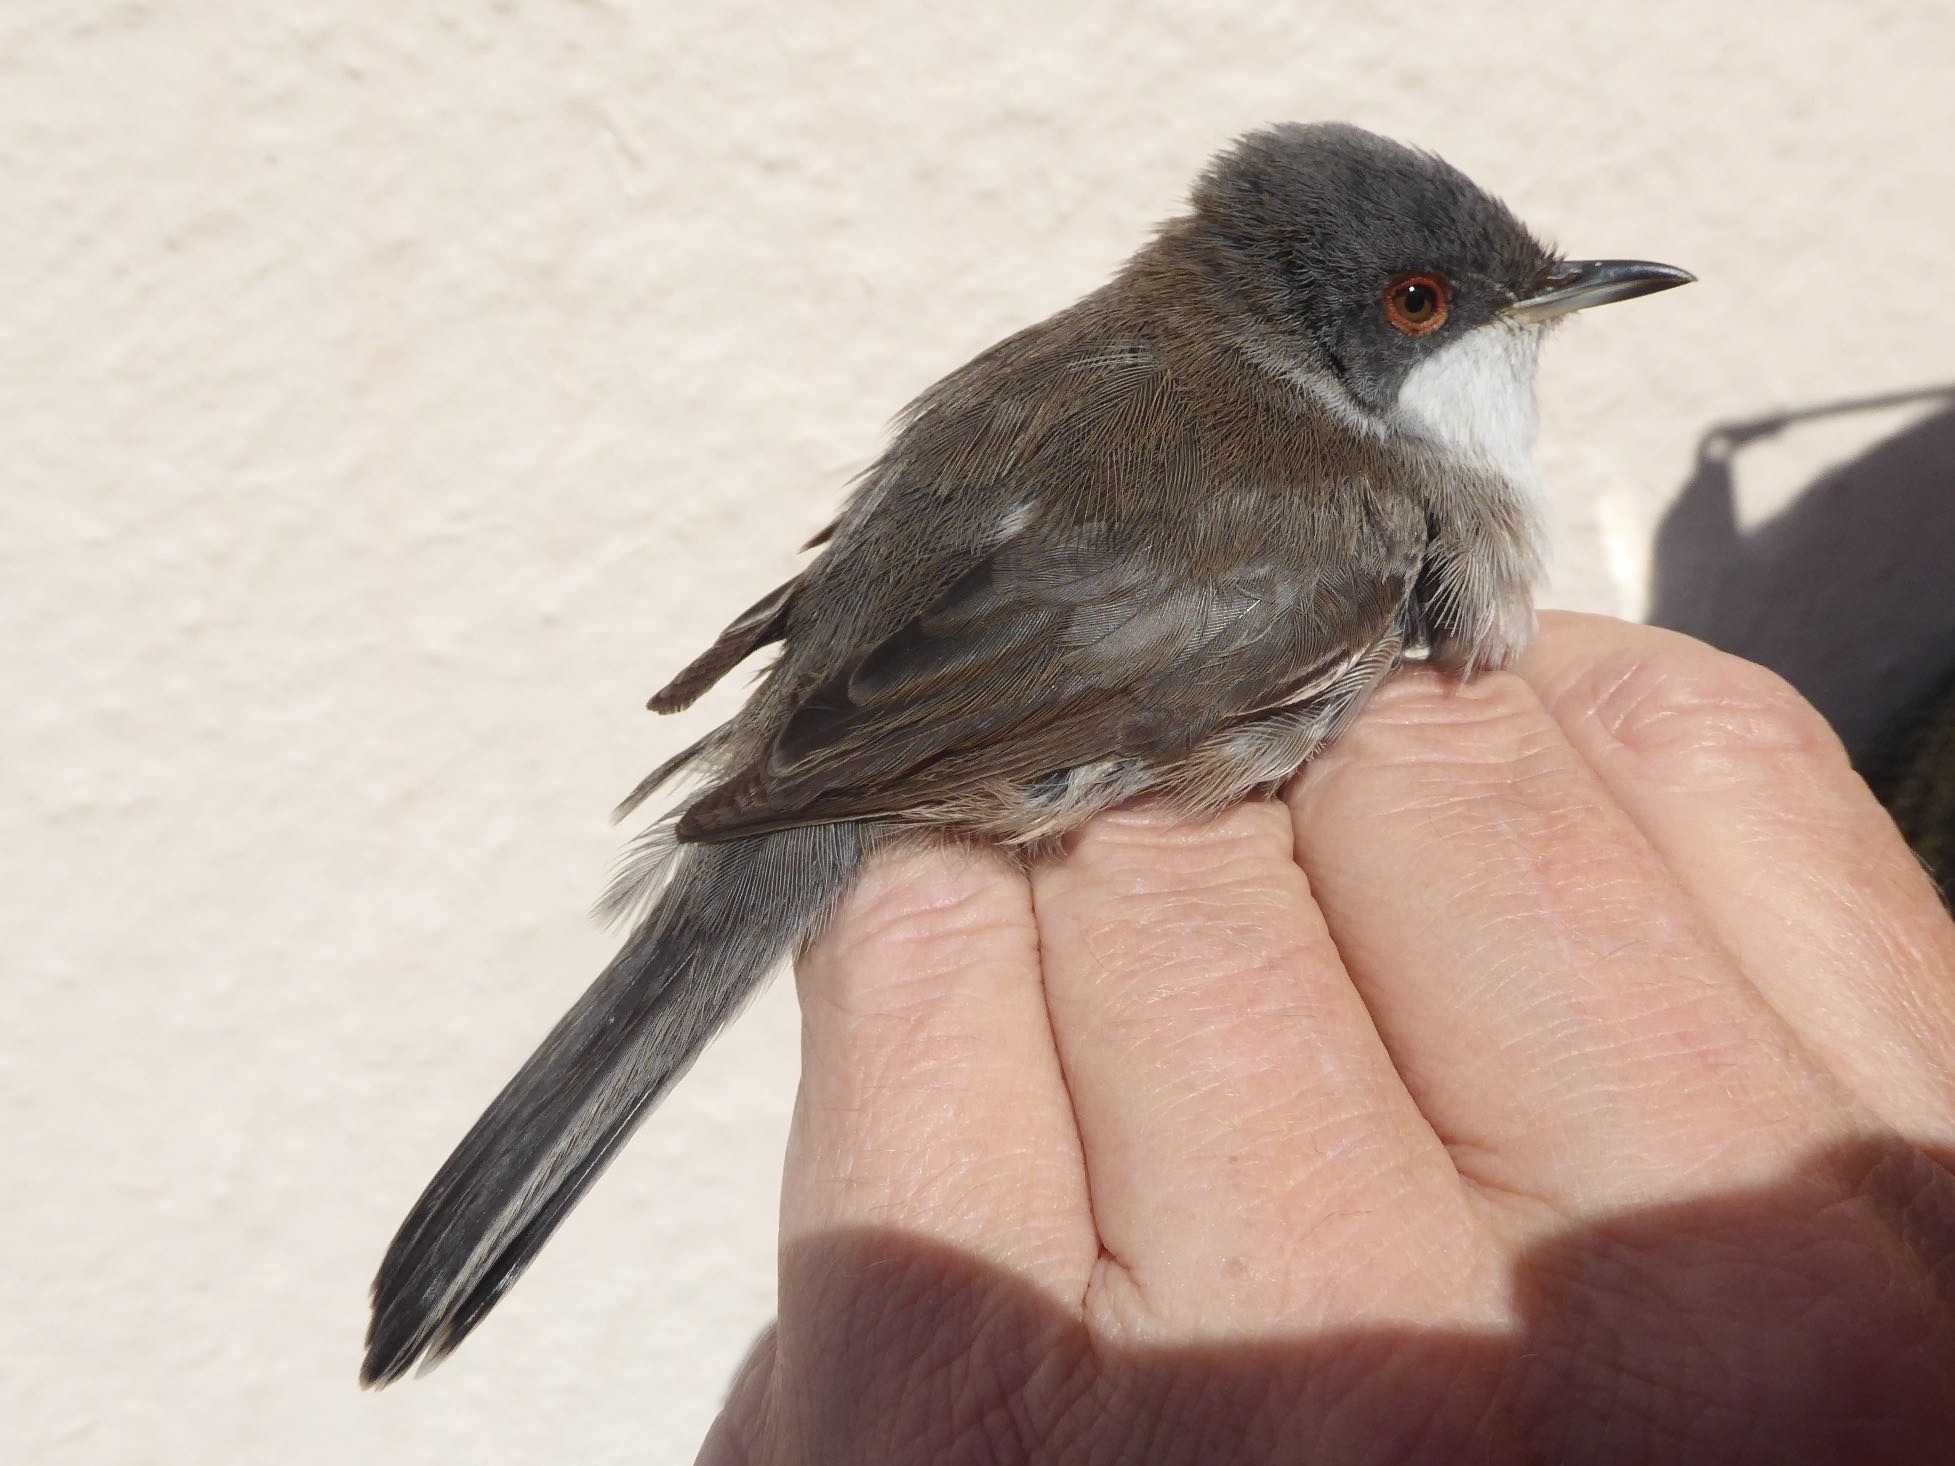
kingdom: Animalia
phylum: Chordata
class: Aves
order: Passeriformes
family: Sylviidae
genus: Curruca
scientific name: Curruca melanocephala
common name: Sardinian warbler
